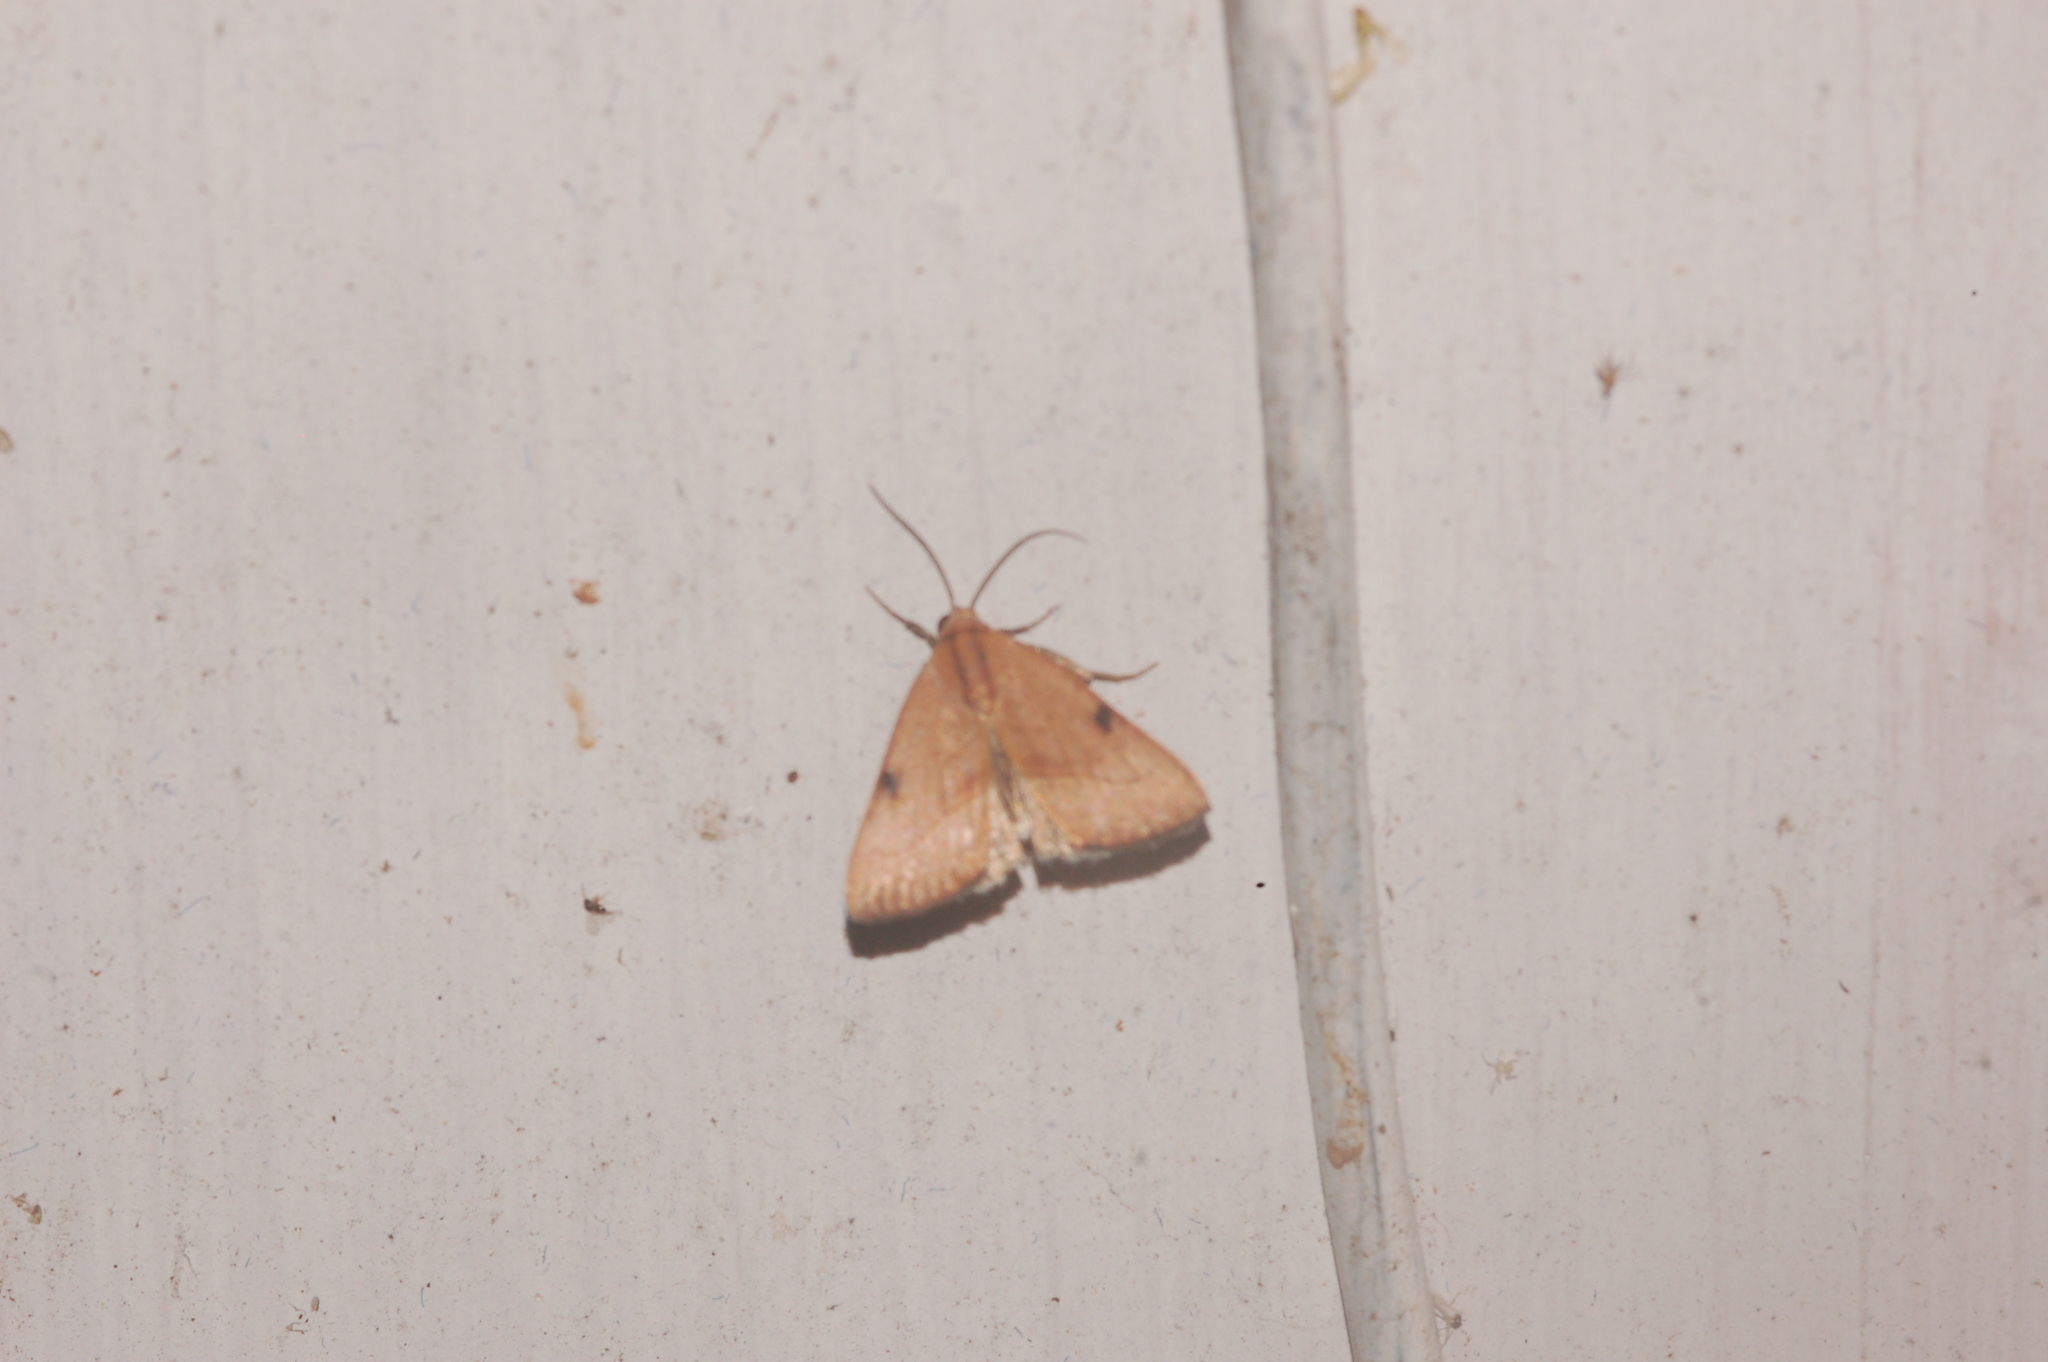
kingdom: Animalia
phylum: Arthropoda
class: Insecta
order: Lepidoptera
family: Noctuidae
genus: Galgula
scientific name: Galgula partita
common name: Wedgeling
